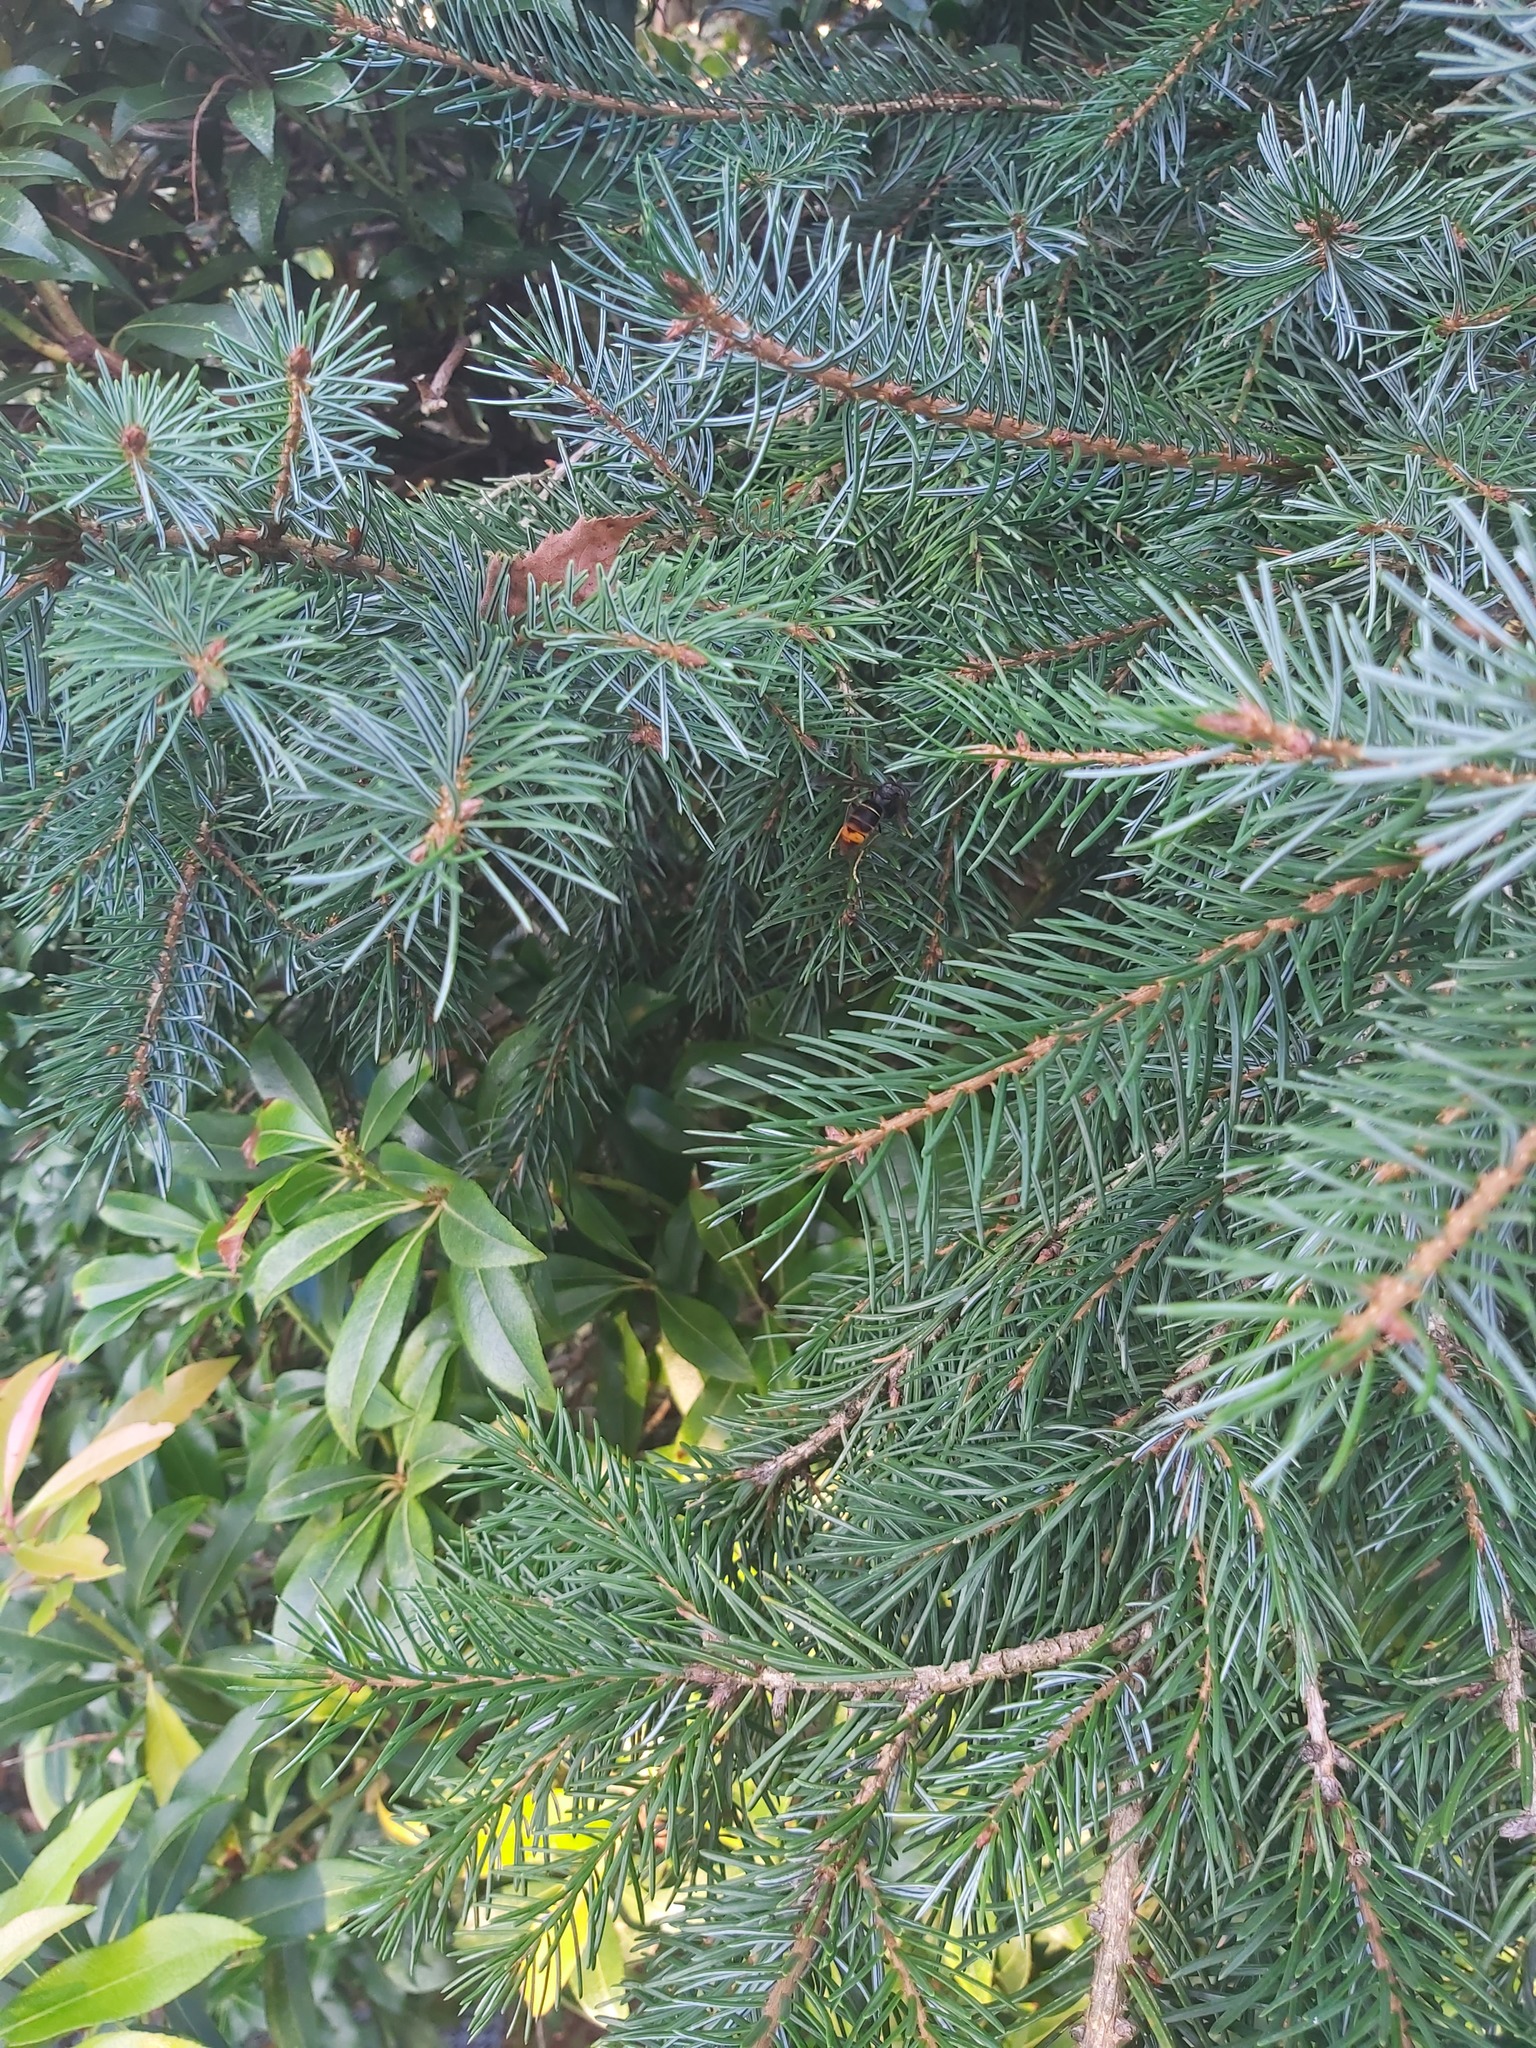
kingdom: Animalia
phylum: Arthropoda
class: Insecta
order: Hymenoptera
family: Vespidae
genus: Vespa
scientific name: Vespa velutina
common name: Asian hornet
